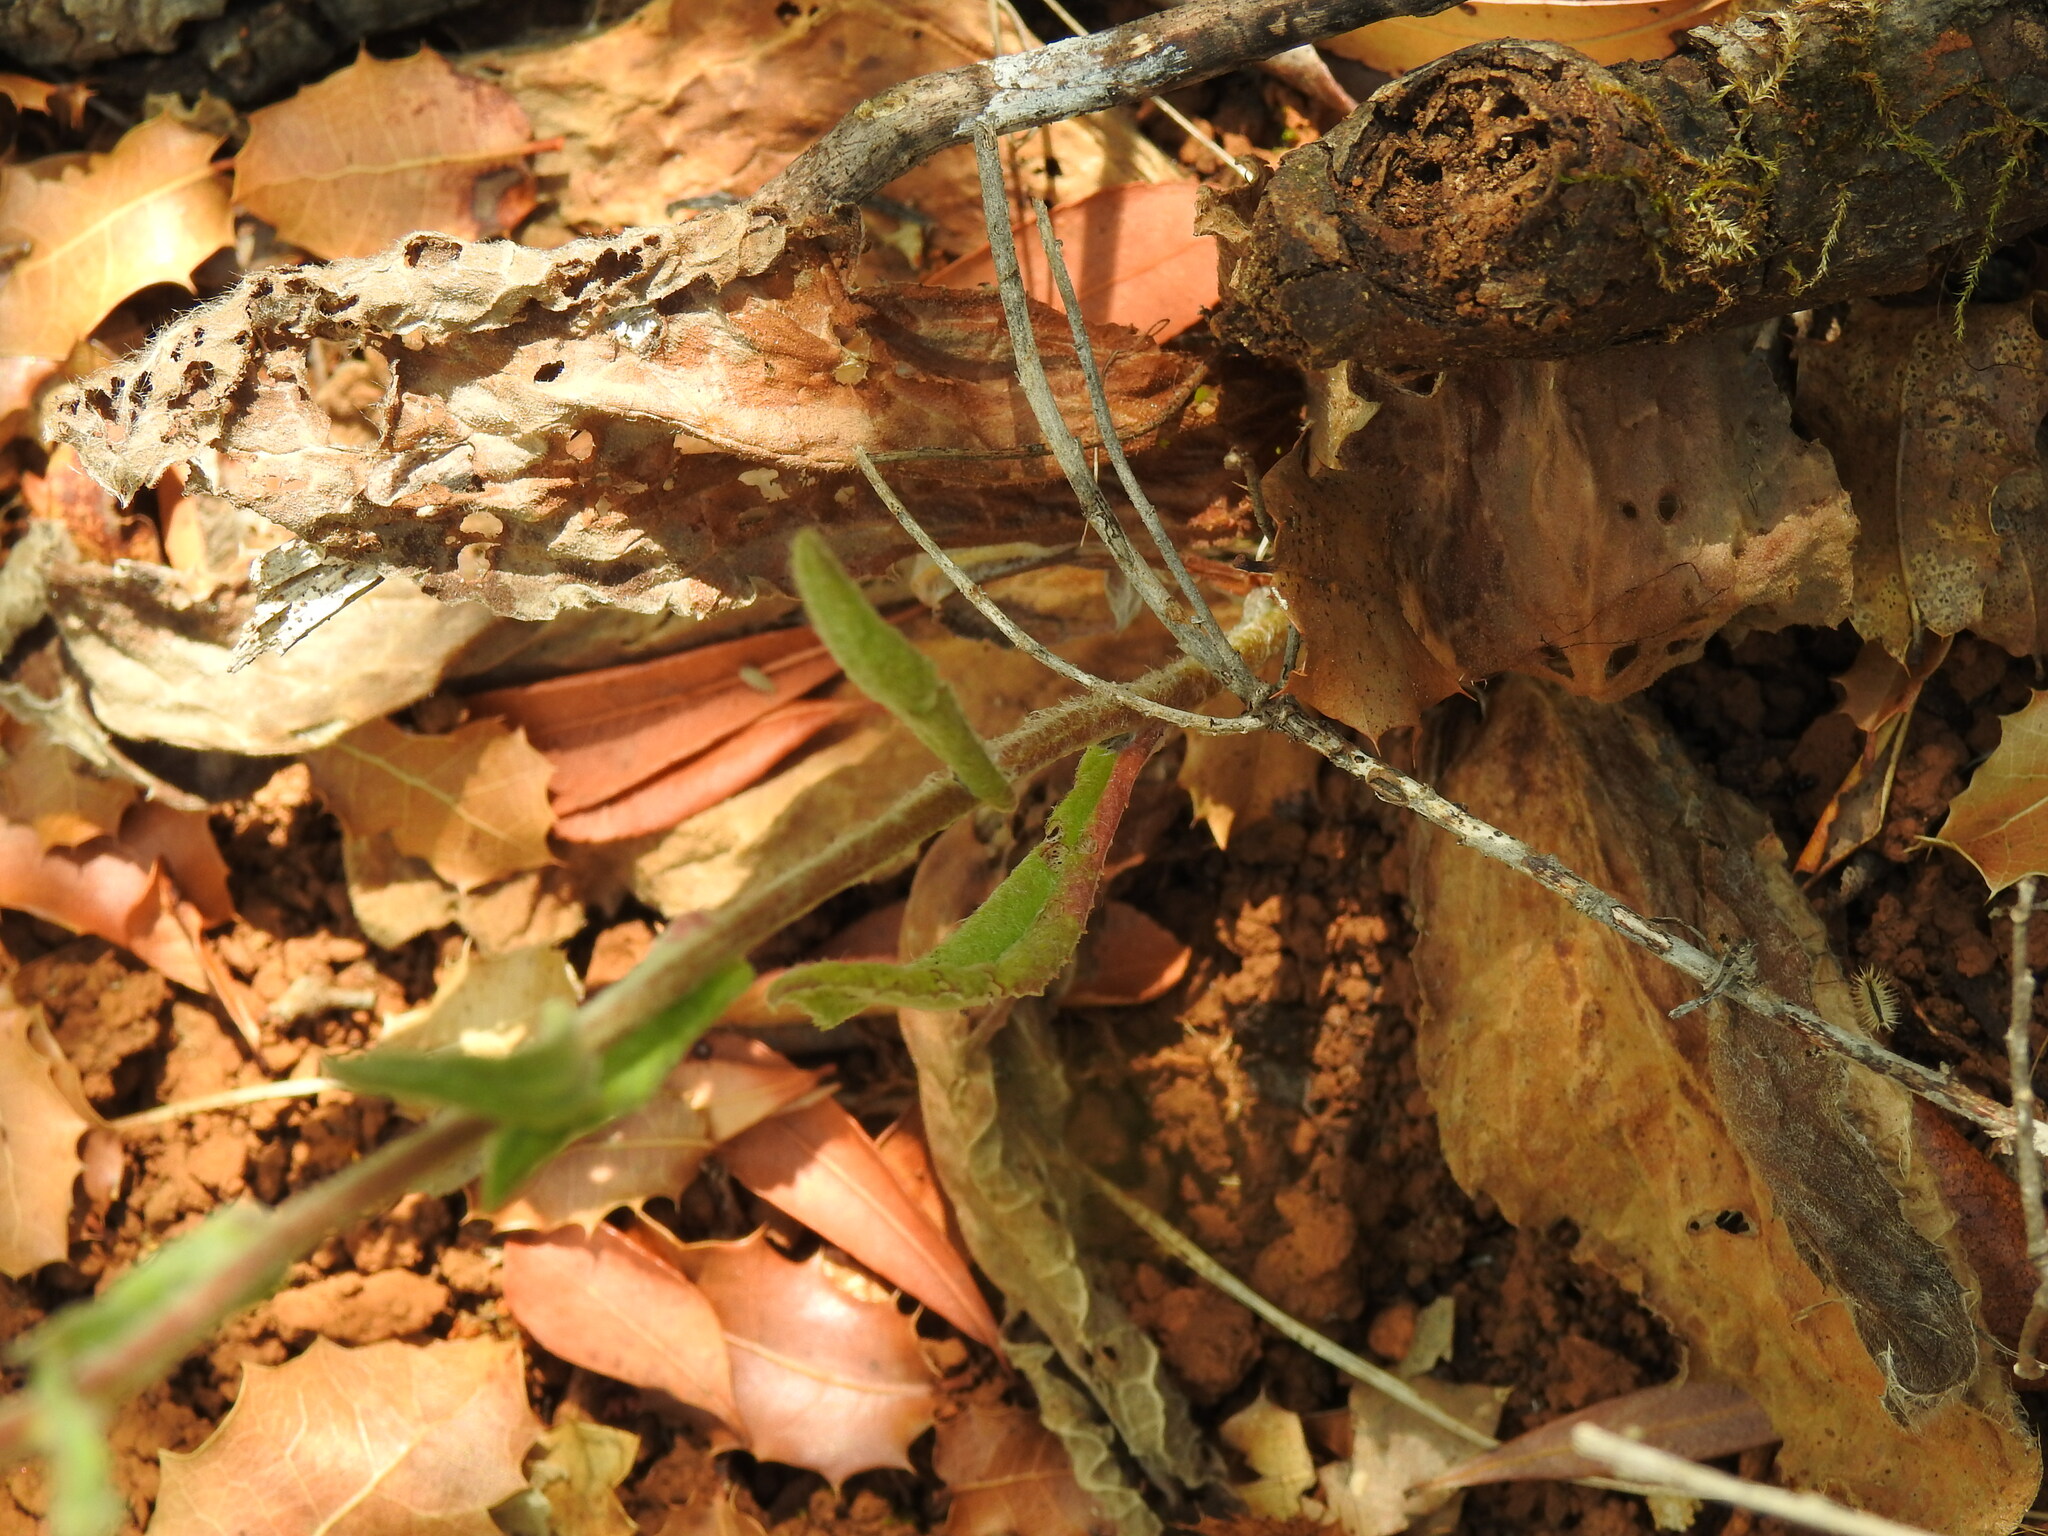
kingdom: Plantae
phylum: Tracheophyta
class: Magnoliopsida
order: Asterales
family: Asteraceae
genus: Pulicaria
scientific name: Pulicaria odora
